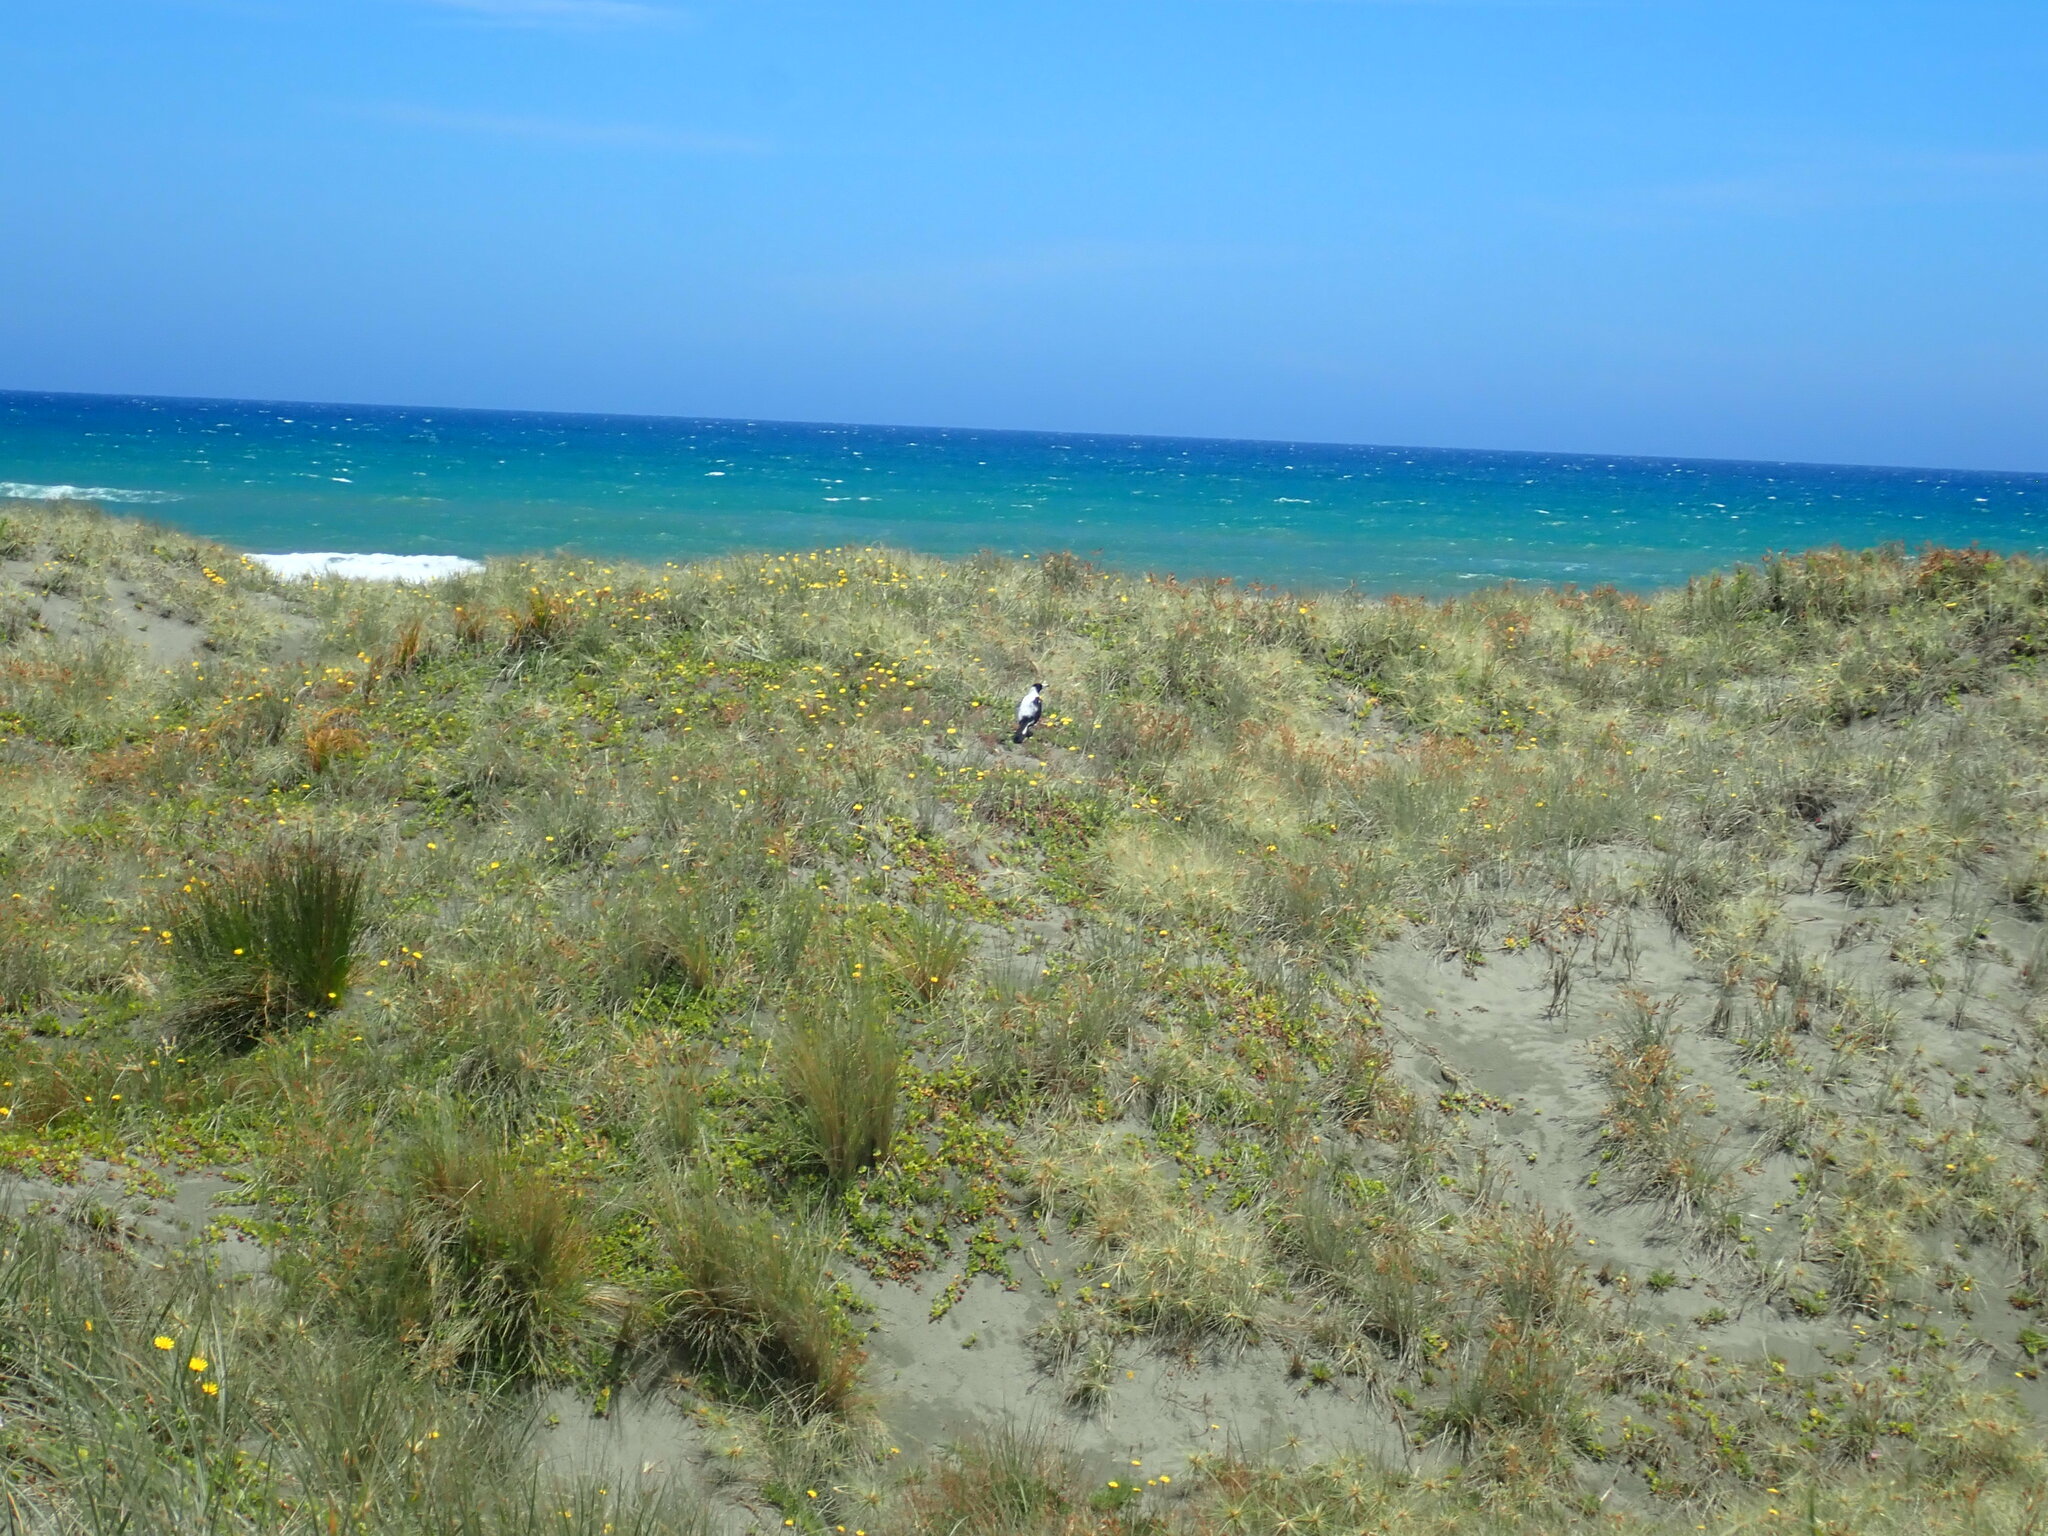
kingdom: Animalia
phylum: Chordata
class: Aves
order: Passeriformes
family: Cracticidae
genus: Gymnorhina
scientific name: Gymnorhina tibicen
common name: Australian magpie
